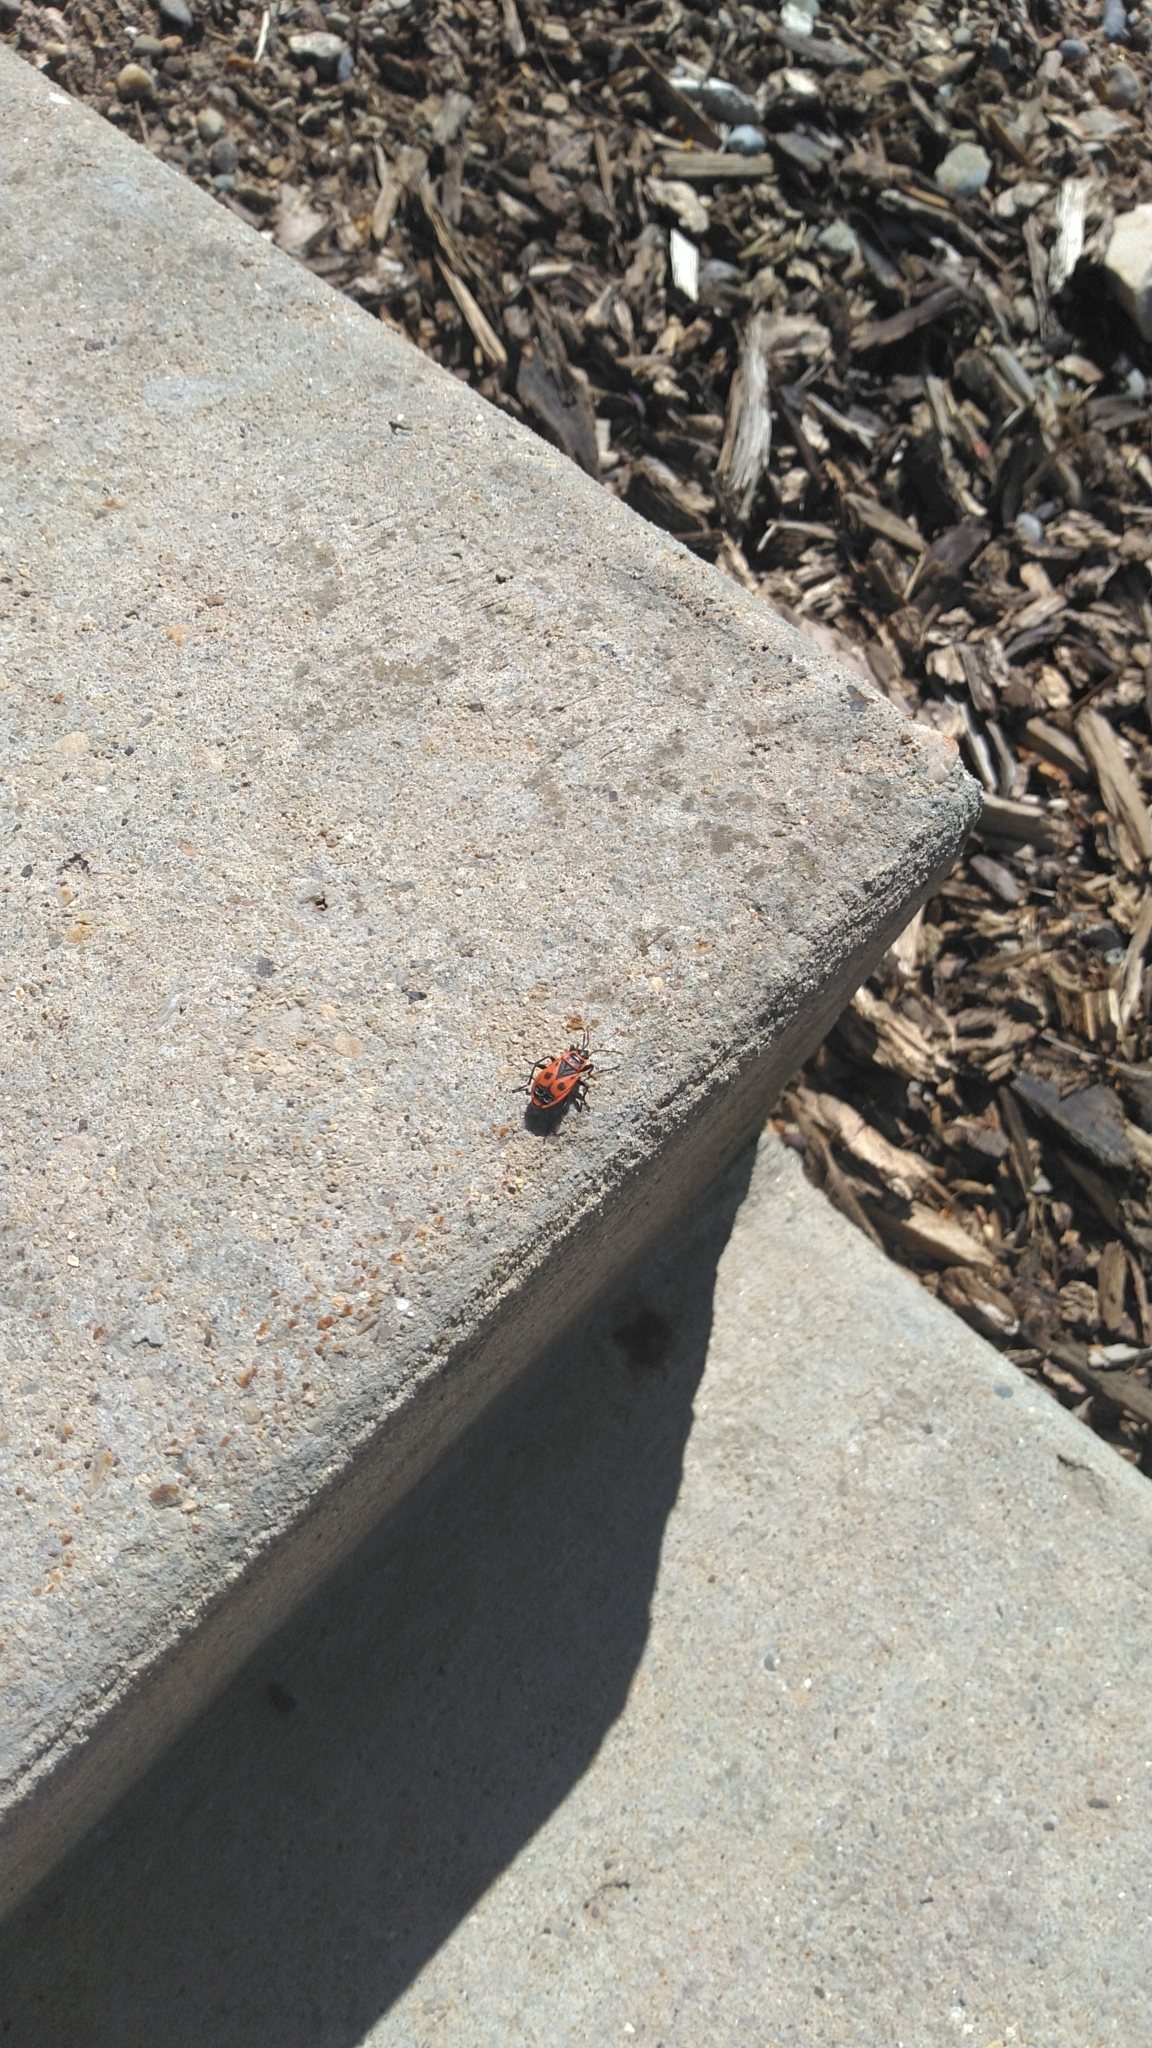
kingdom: Animalia
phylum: Arthropoda
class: Insecta
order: Hemiptera
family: Pyrrhocoridae
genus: Pyrrhocoris
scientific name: Pyrrhocoris apterus
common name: Firebug
